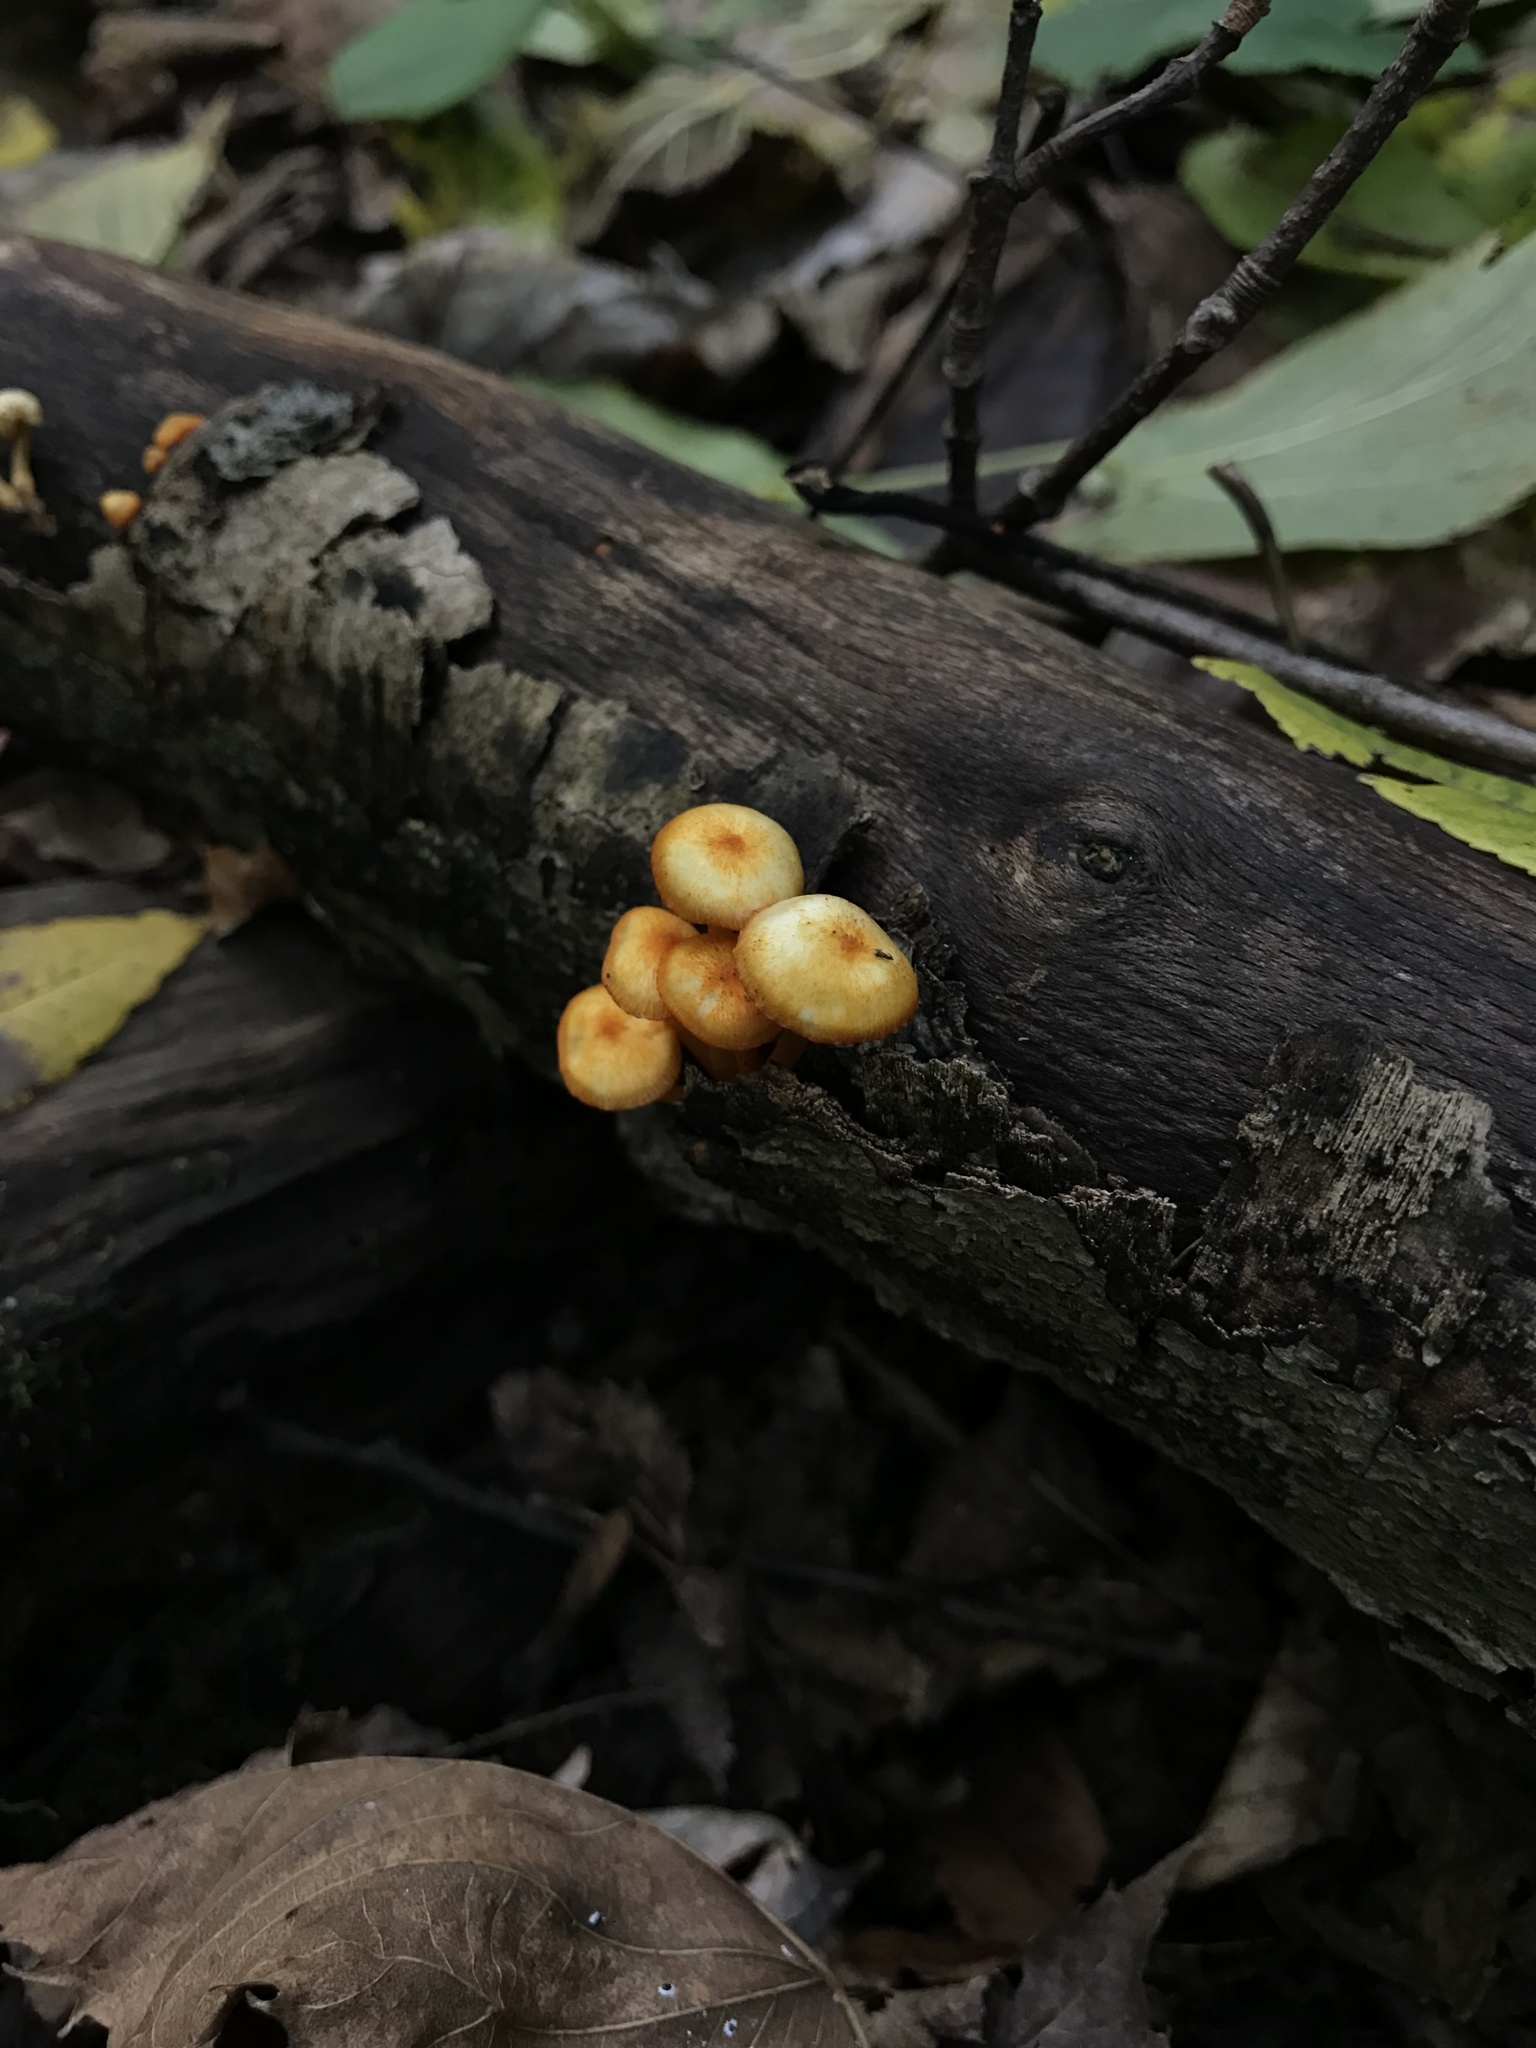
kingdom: Fungi
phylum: Basidiomycota
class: Agaricomycetes
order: Agaricales
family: Mycenaceae
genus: Mycena
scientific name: Mycena leaiana
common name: Orange mycena
